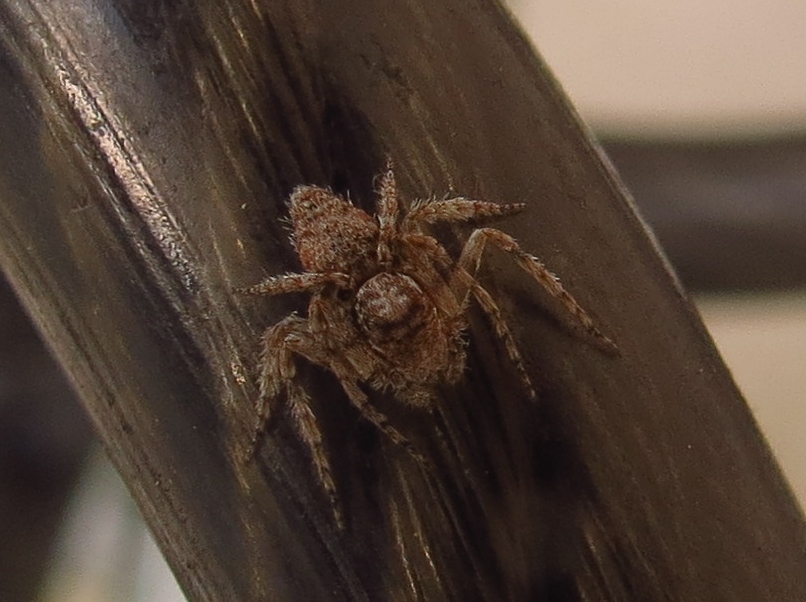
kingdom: Animalia
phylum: Arthropoda
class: Arachnida
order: Araneae
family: Oxyopidae
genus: Hamataliwa
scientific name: Hamataliwa grisea
